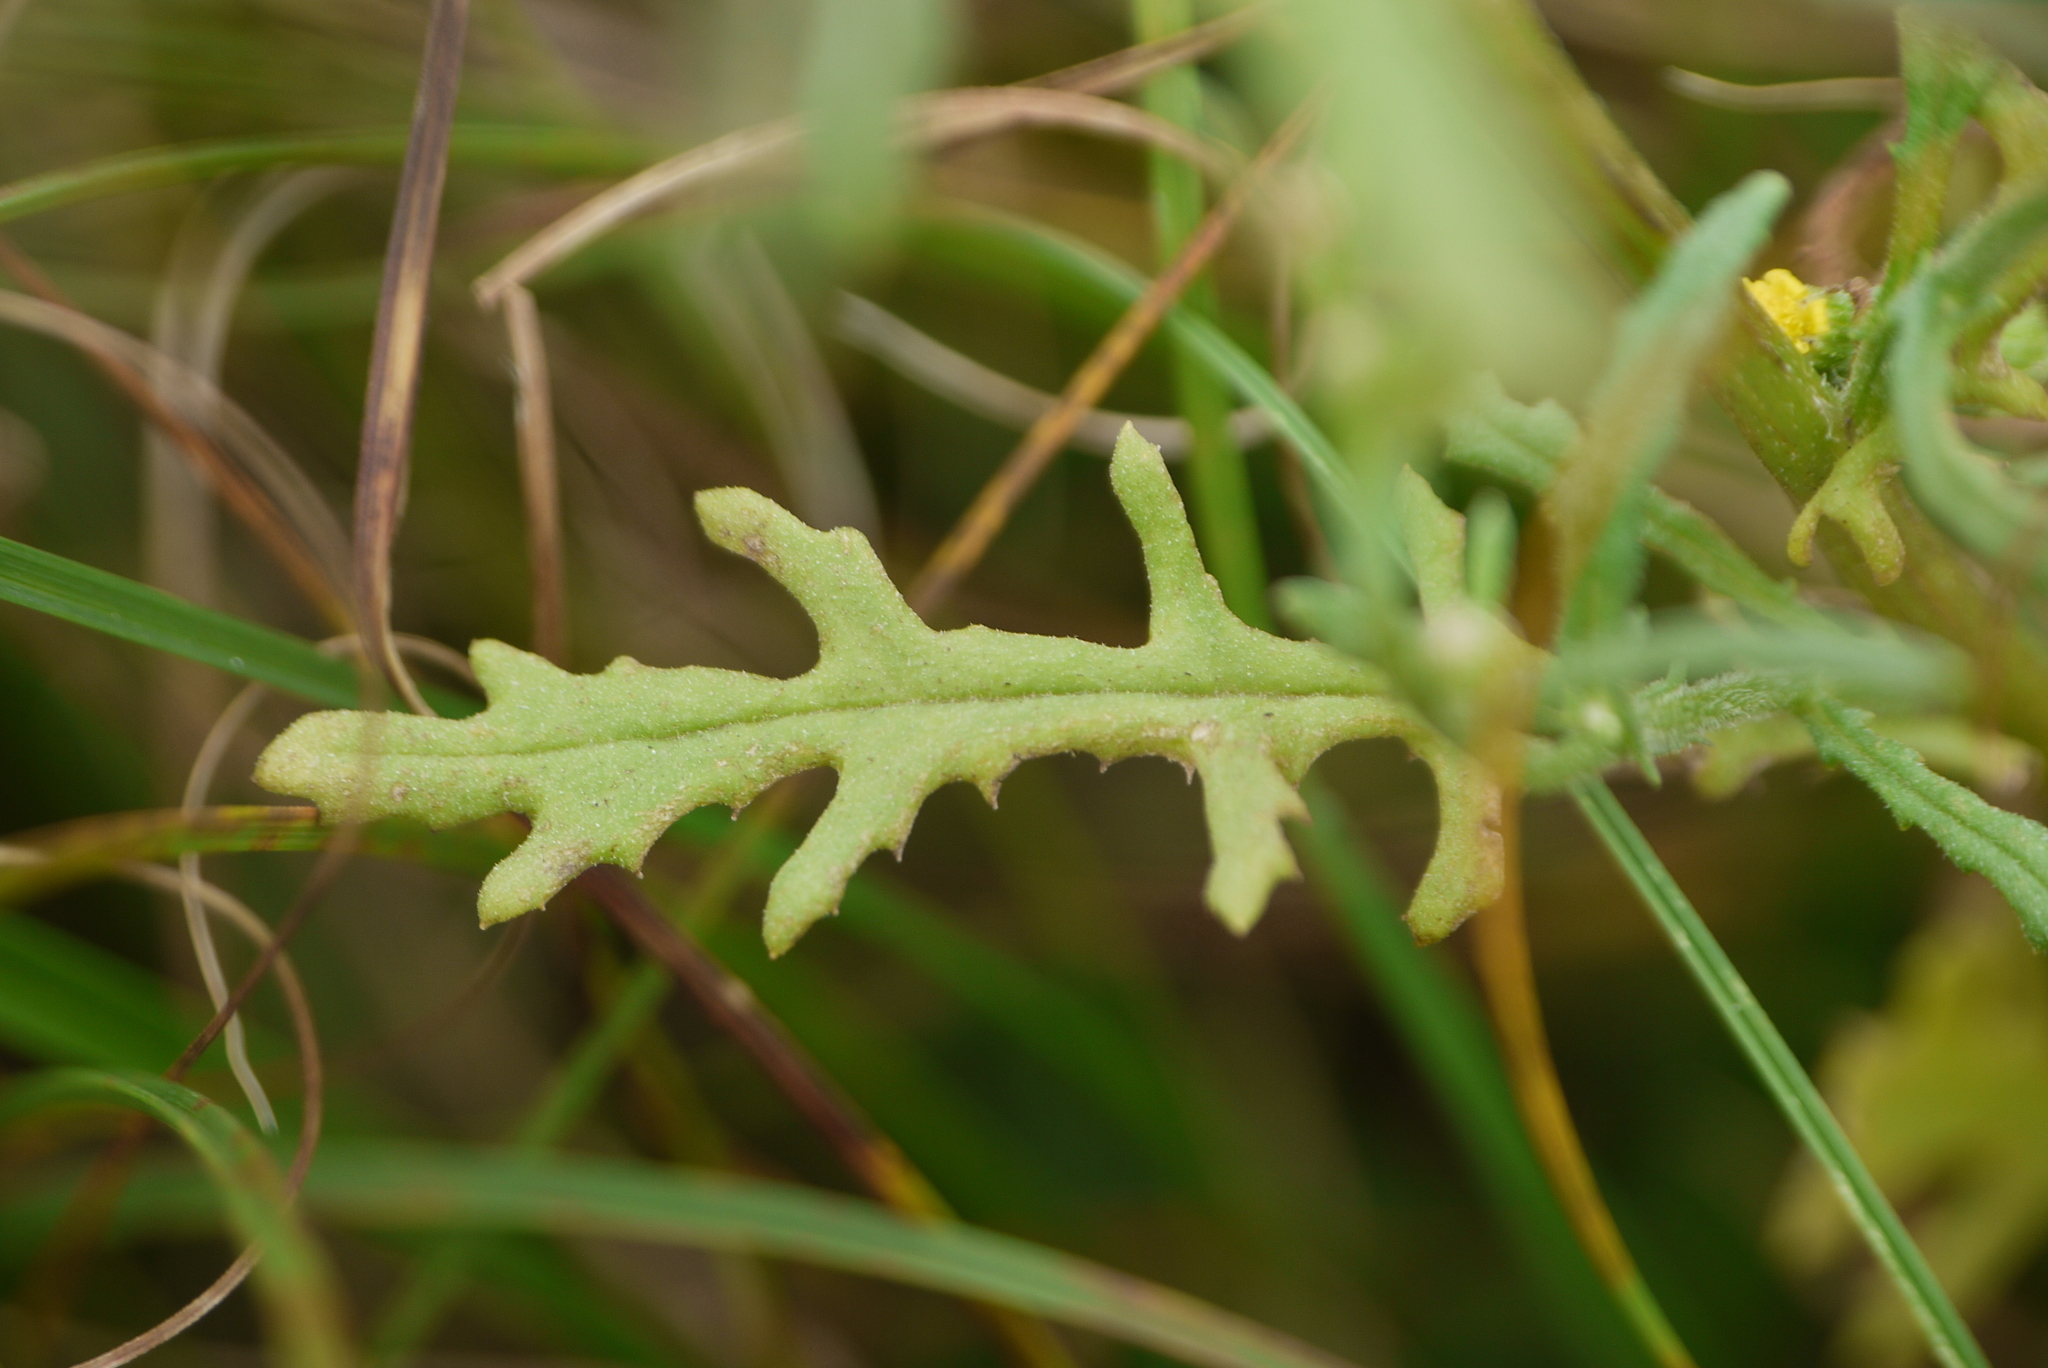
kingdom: Plantae
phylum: Tracheophyta
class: Magnoliopsida
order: Asterales
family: Asteraceae
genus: Senecio
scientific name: Senecio sylvaticus
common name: Woodland ragwort
